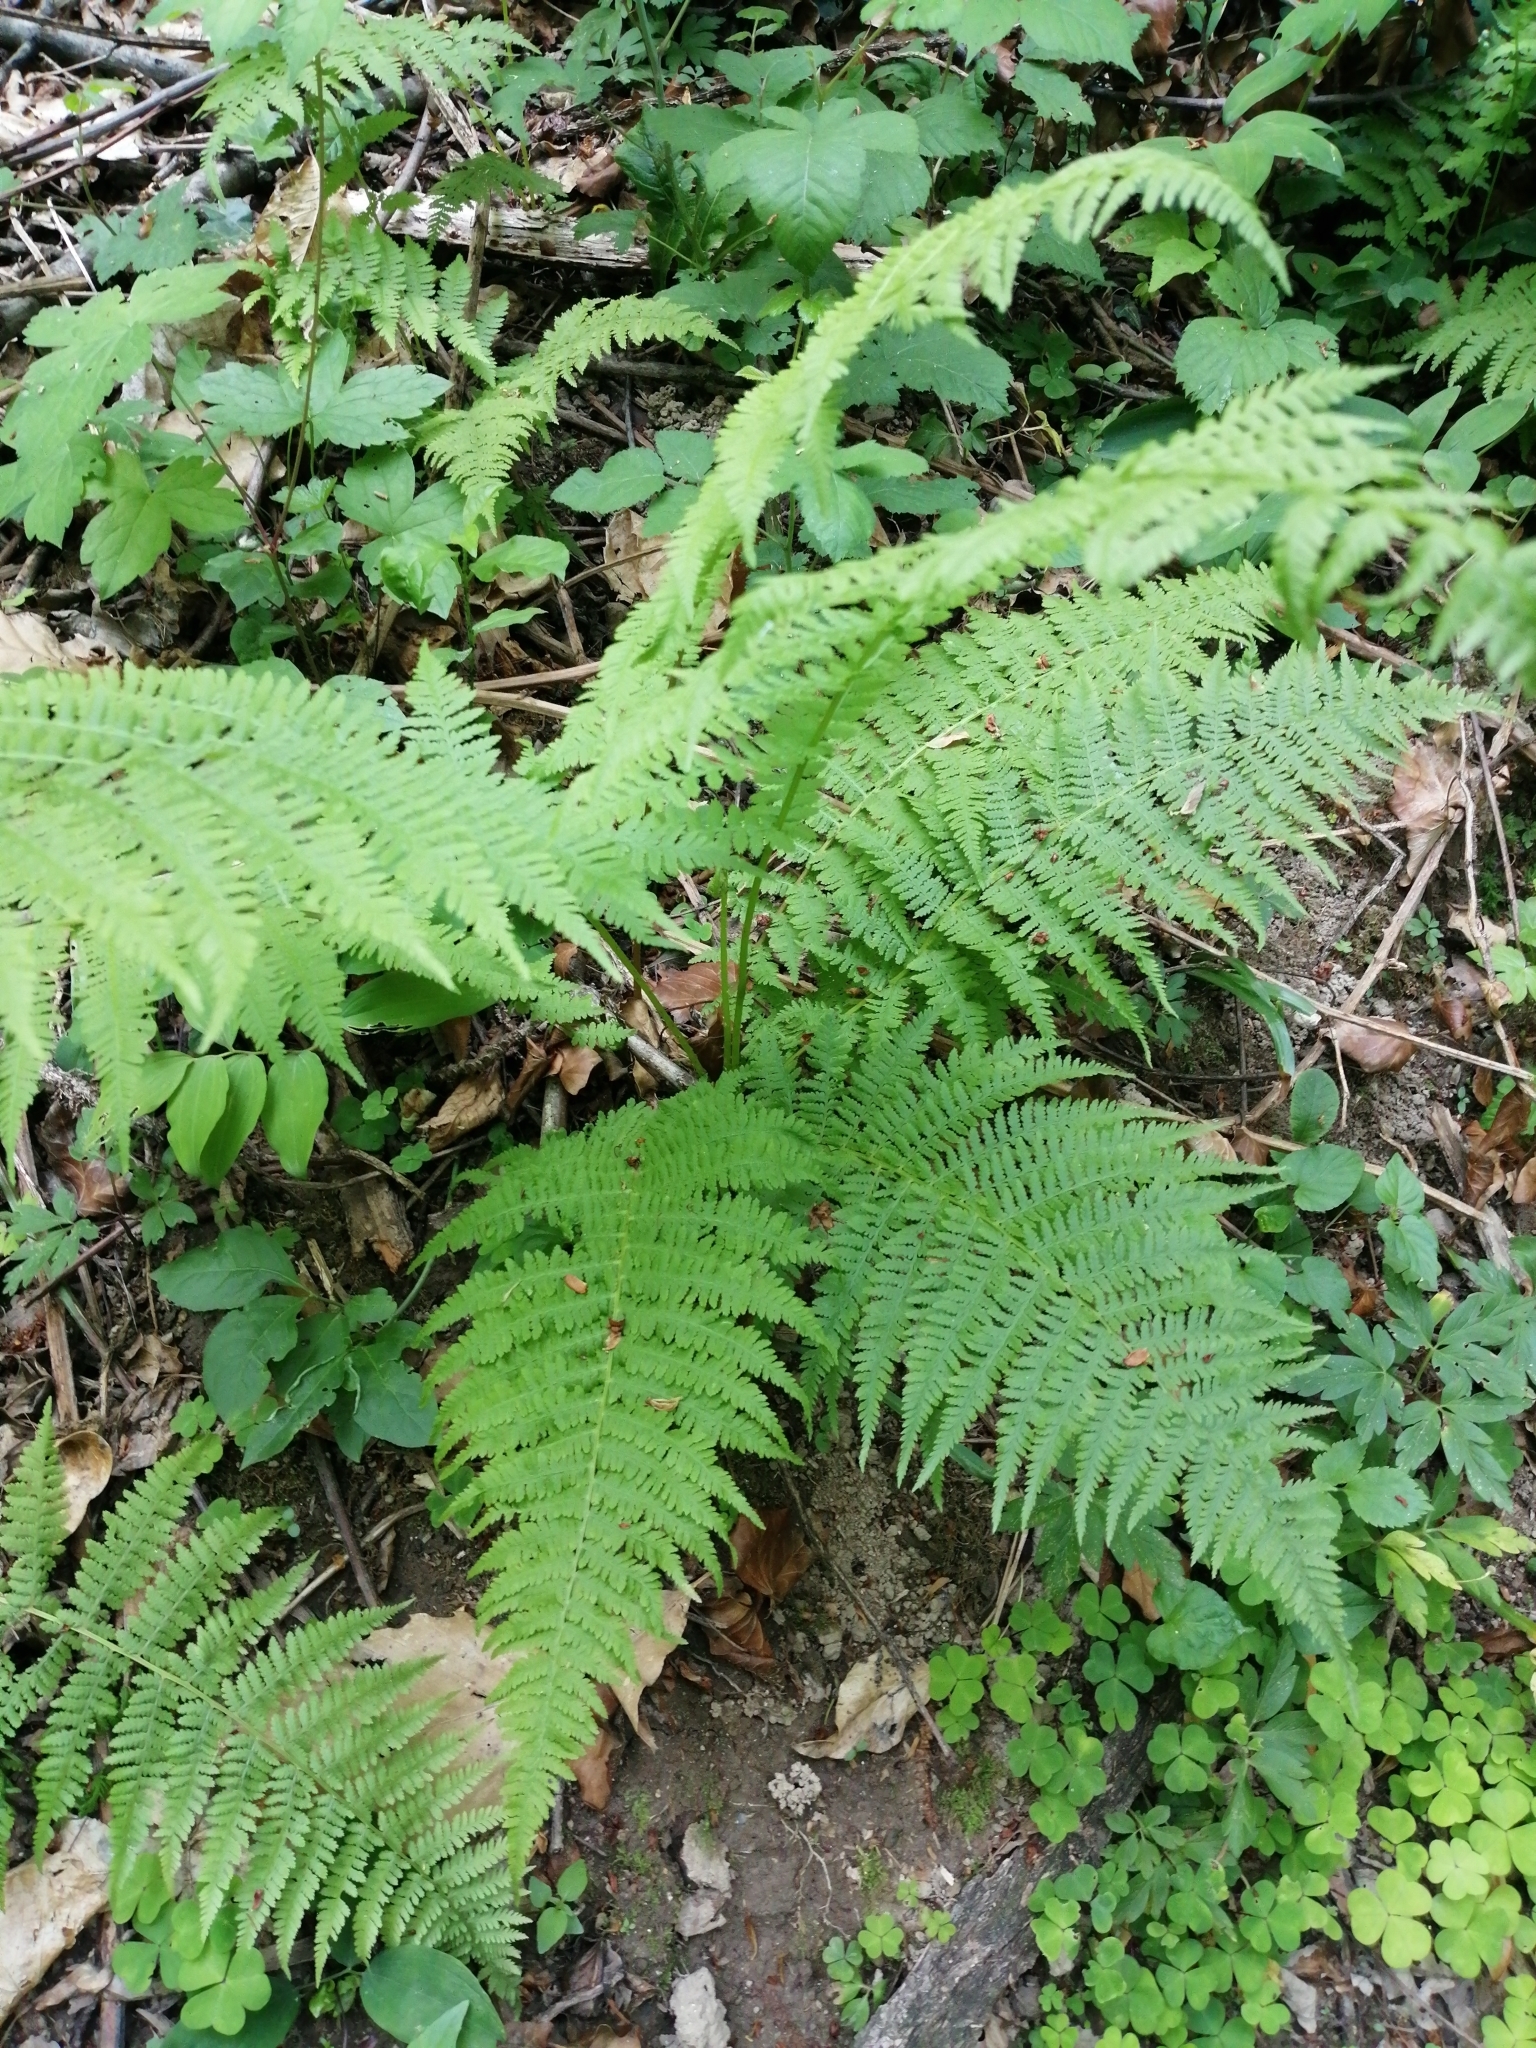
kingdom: Plantae
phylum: Tracheophyta
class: Polypodiopsida
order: Polypodiales
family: Athyriaceae
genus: Athyrium
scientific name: Athyrium filix-femina
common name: Lady fern
